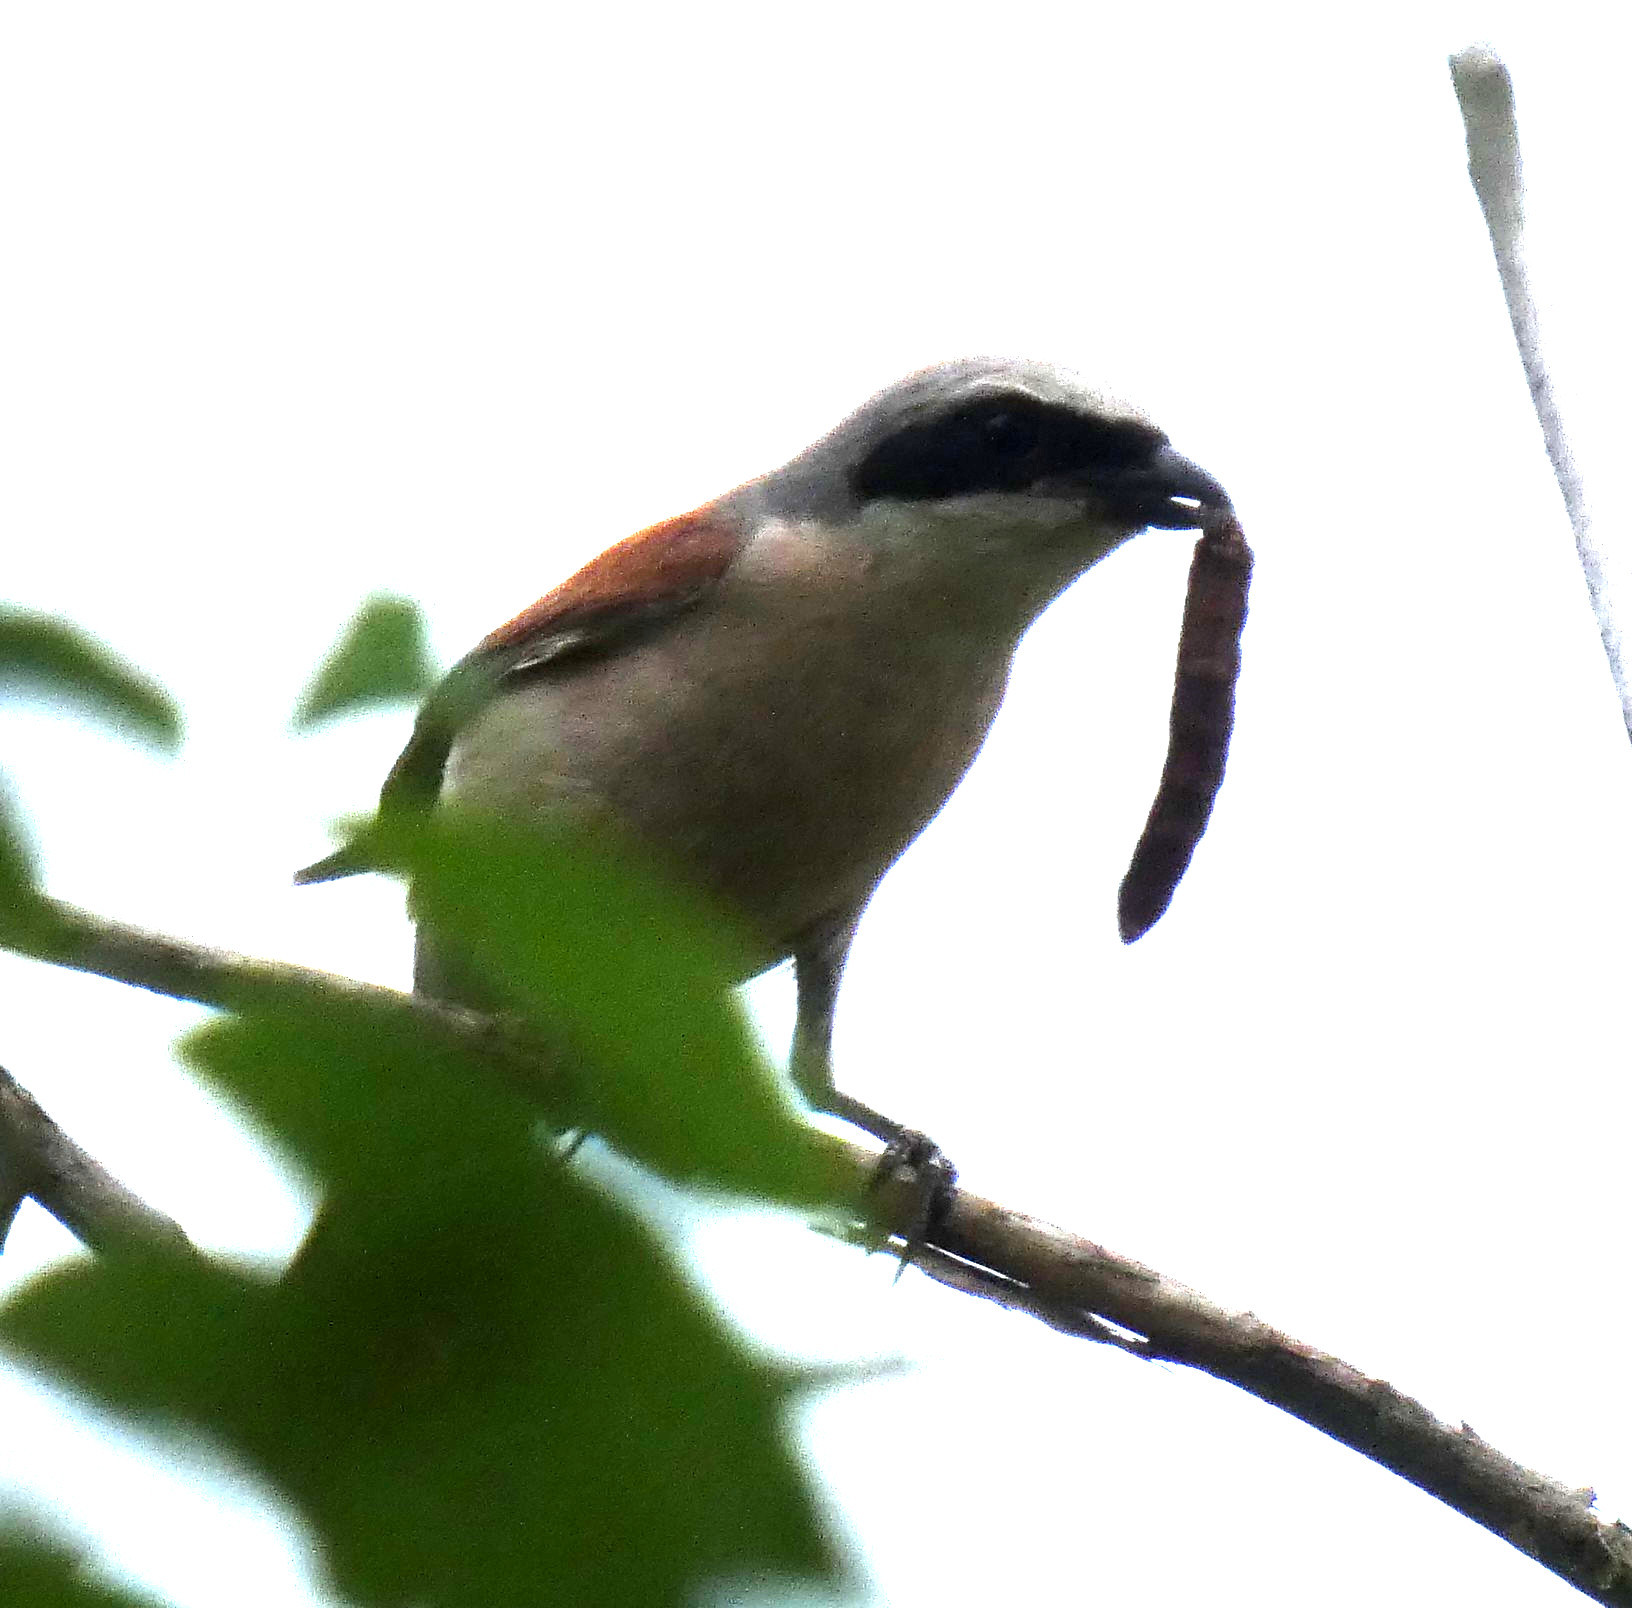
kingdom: Animalia
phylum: Chordata
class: Aves
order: Passeriformes
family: Laniidae
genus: Lanius
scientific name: Lanius collurio
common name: Red-backed shrike
